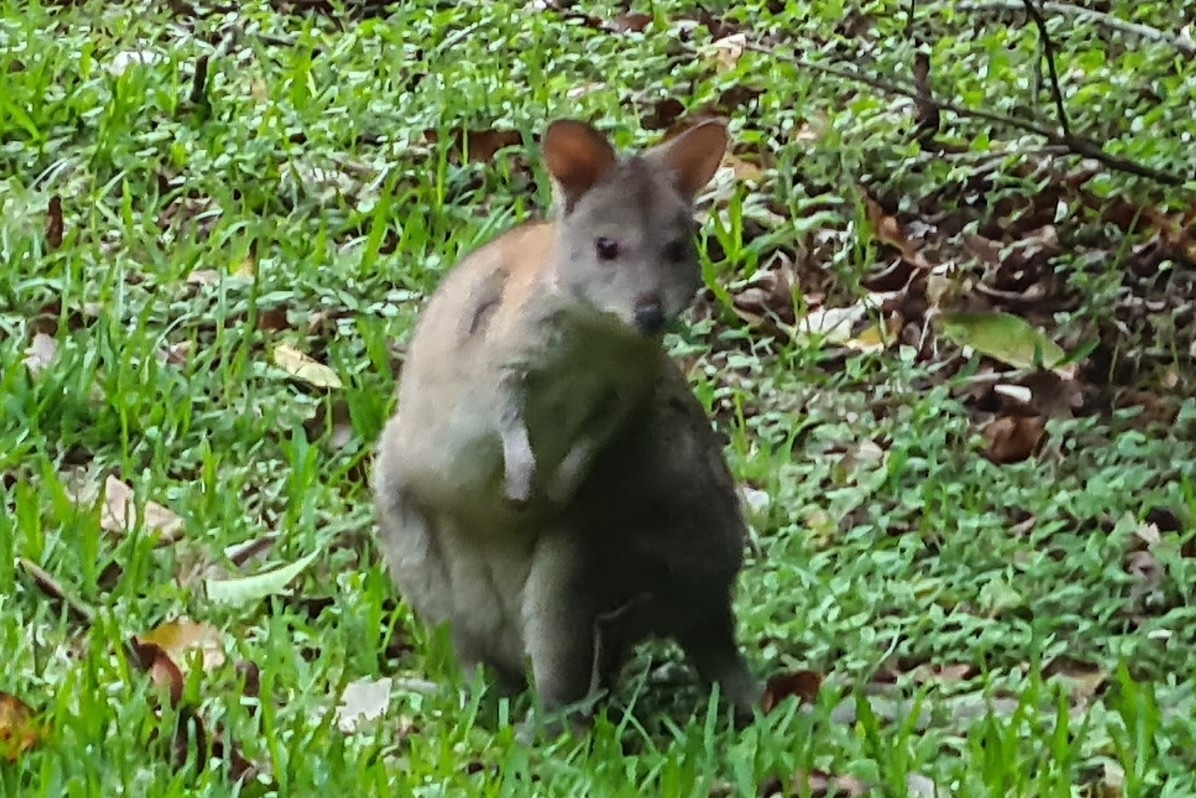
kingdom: Animalia
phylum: Chordata
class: Mammalia
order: Diprotodontia
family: Macropodidae
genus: Thylogale
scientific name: Thylogale stigmatica
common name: Red-legged pademelon
